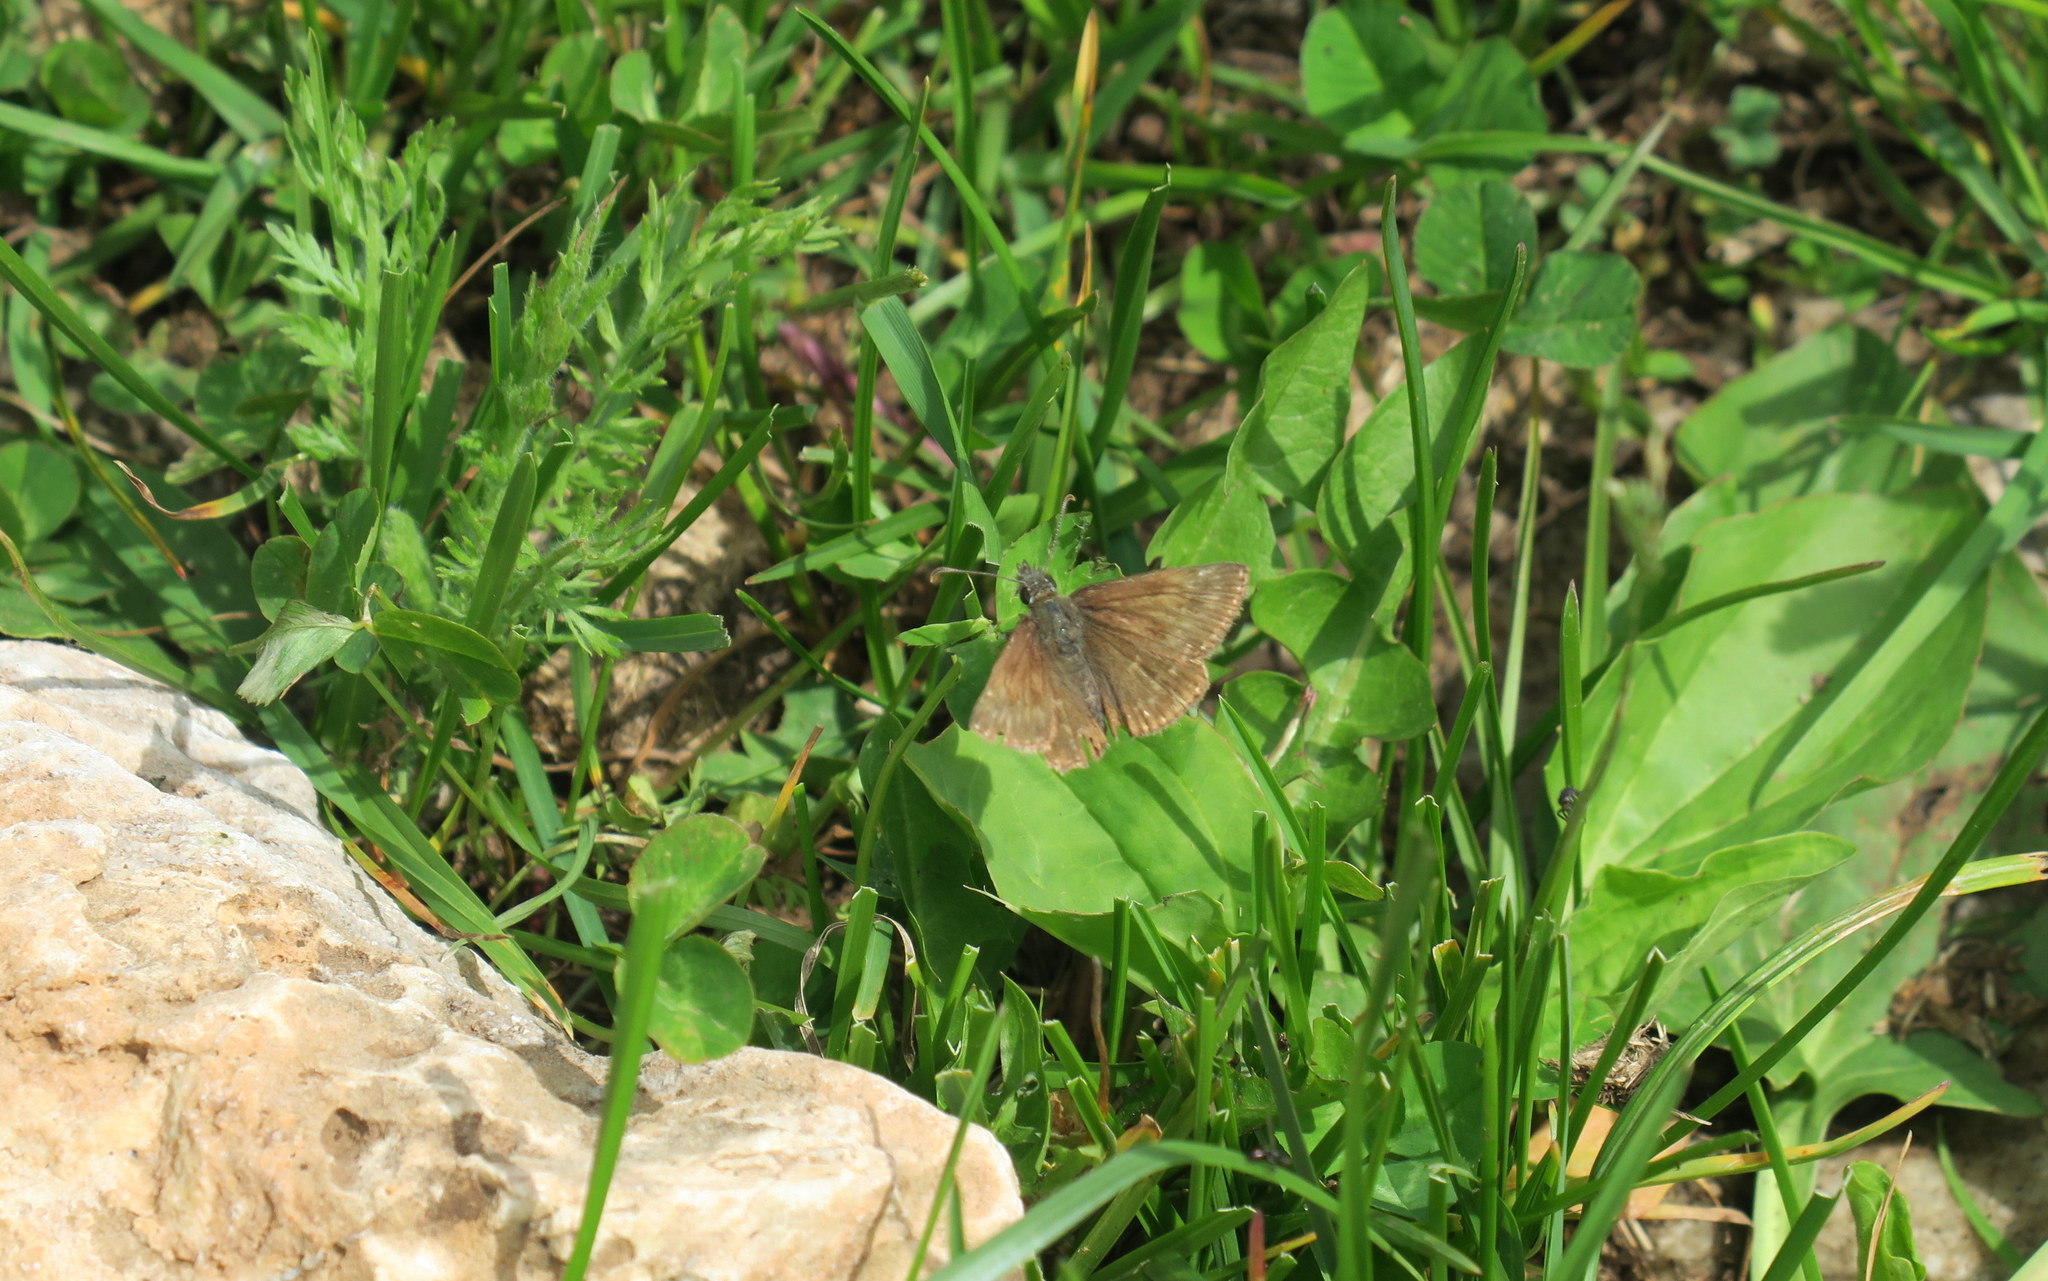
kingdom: Animalia
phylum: Arthropoda
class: Insecta
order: Lepidoptera
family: Hesperiidae
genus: Erynnis
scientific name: Erynnis tages
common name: Dingy skipper
